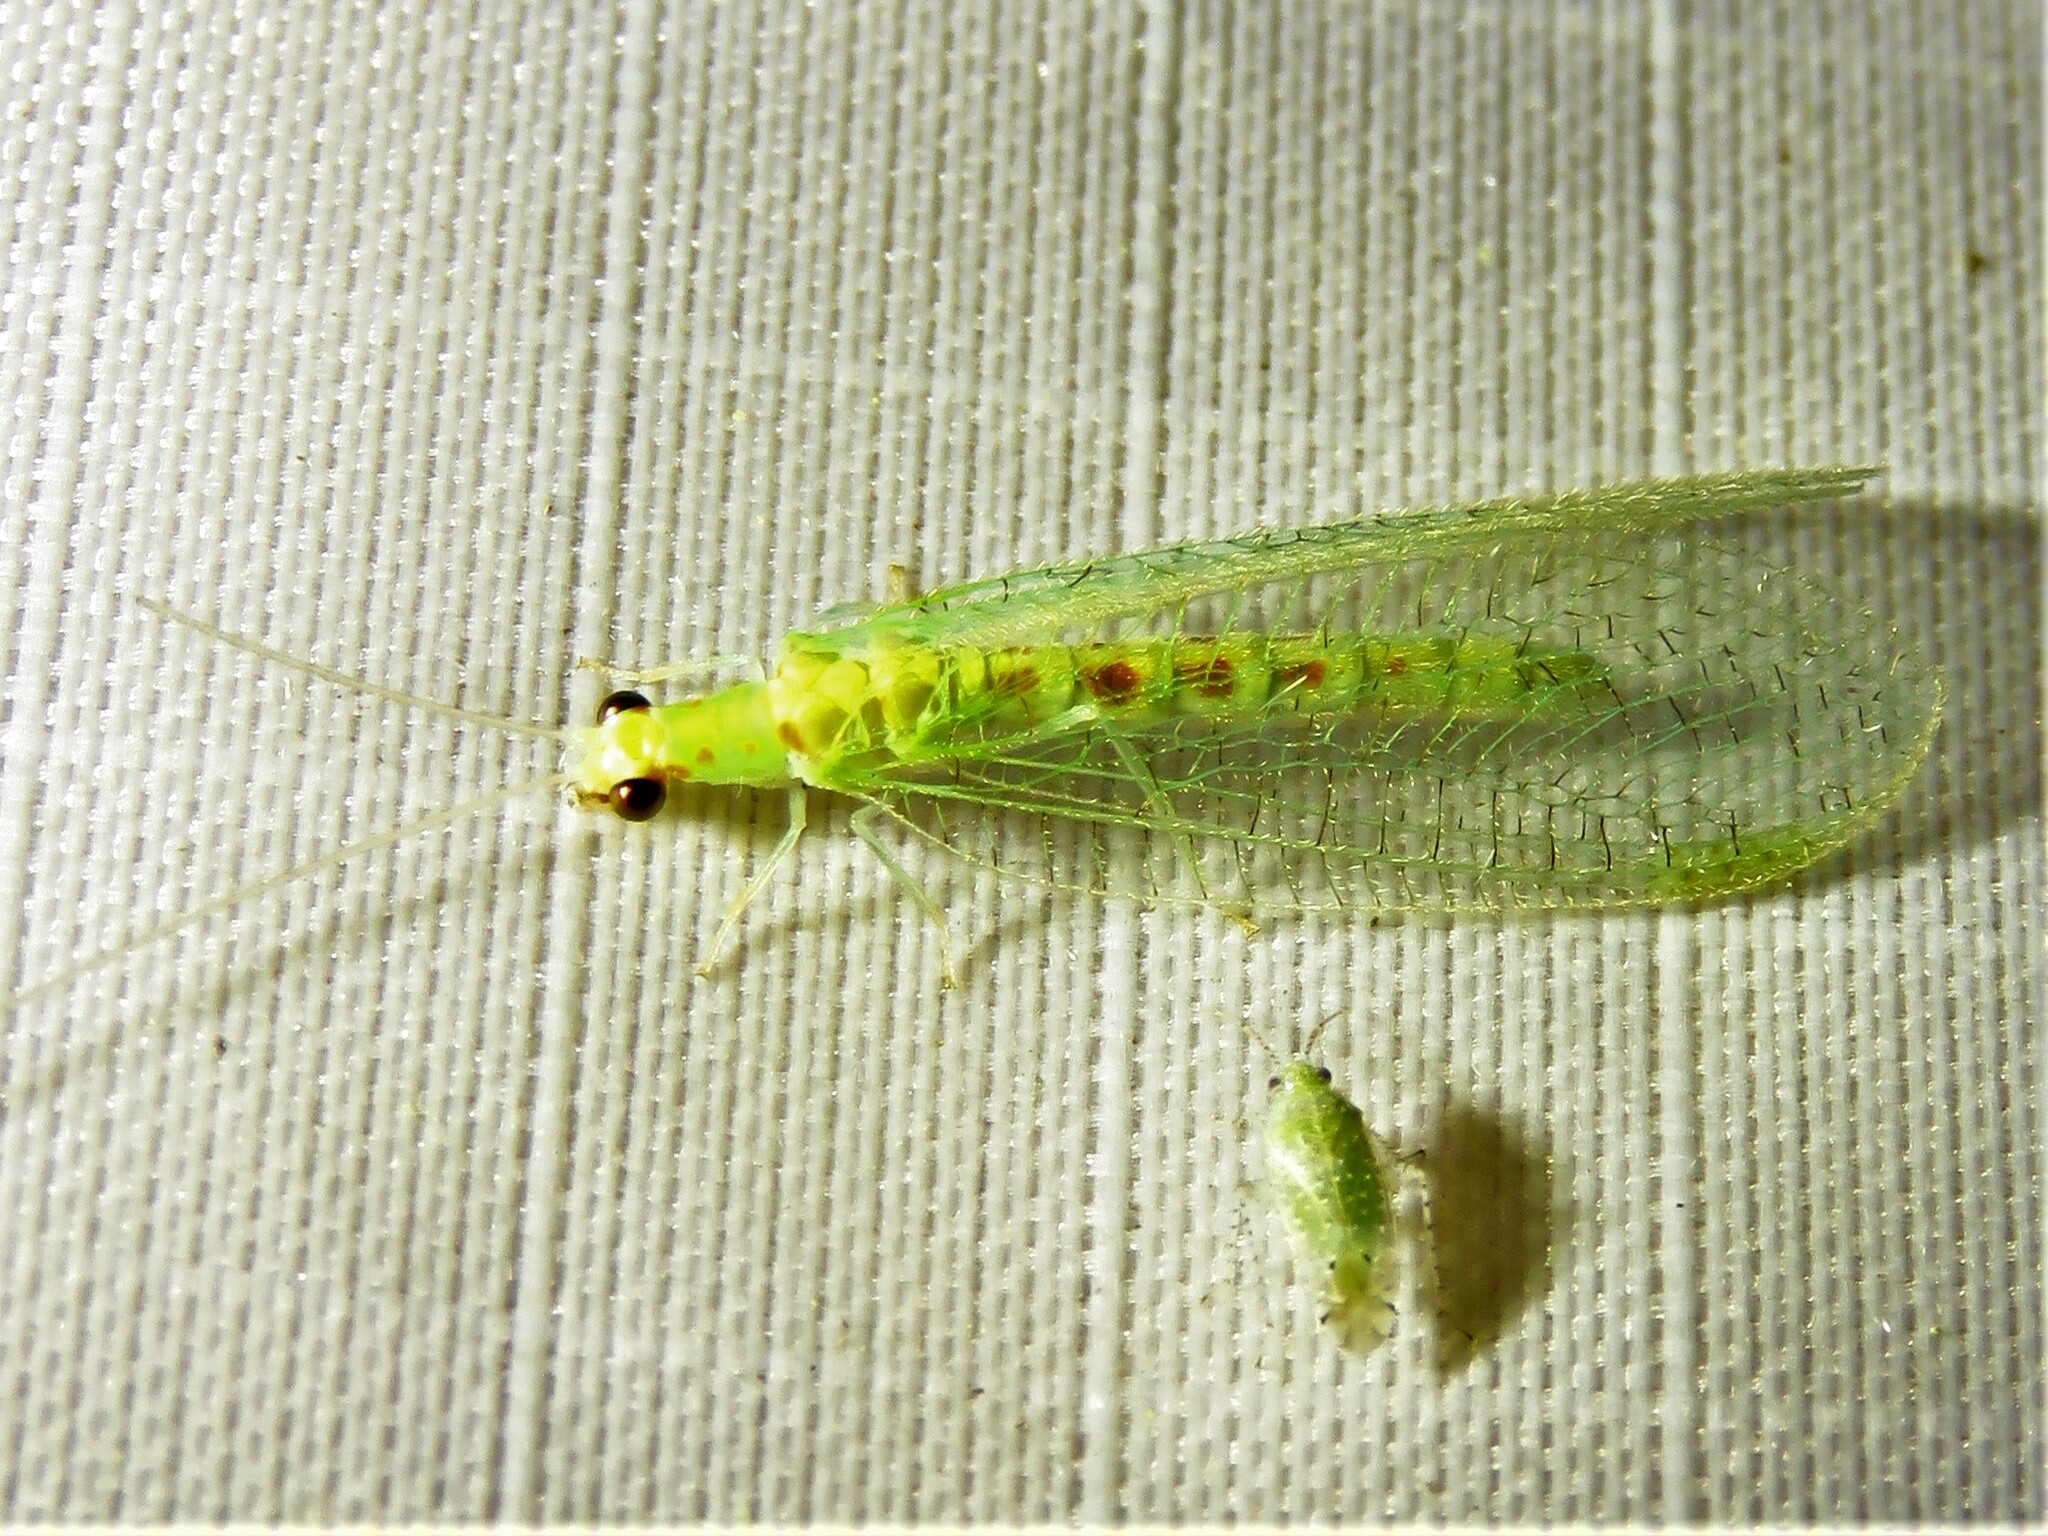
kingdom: Animalia
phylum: Arthropoda
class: Insecta
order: Neuroptera
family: Chrysopidae
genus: Chrysopa
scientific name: Chrysopa quadripunctata
